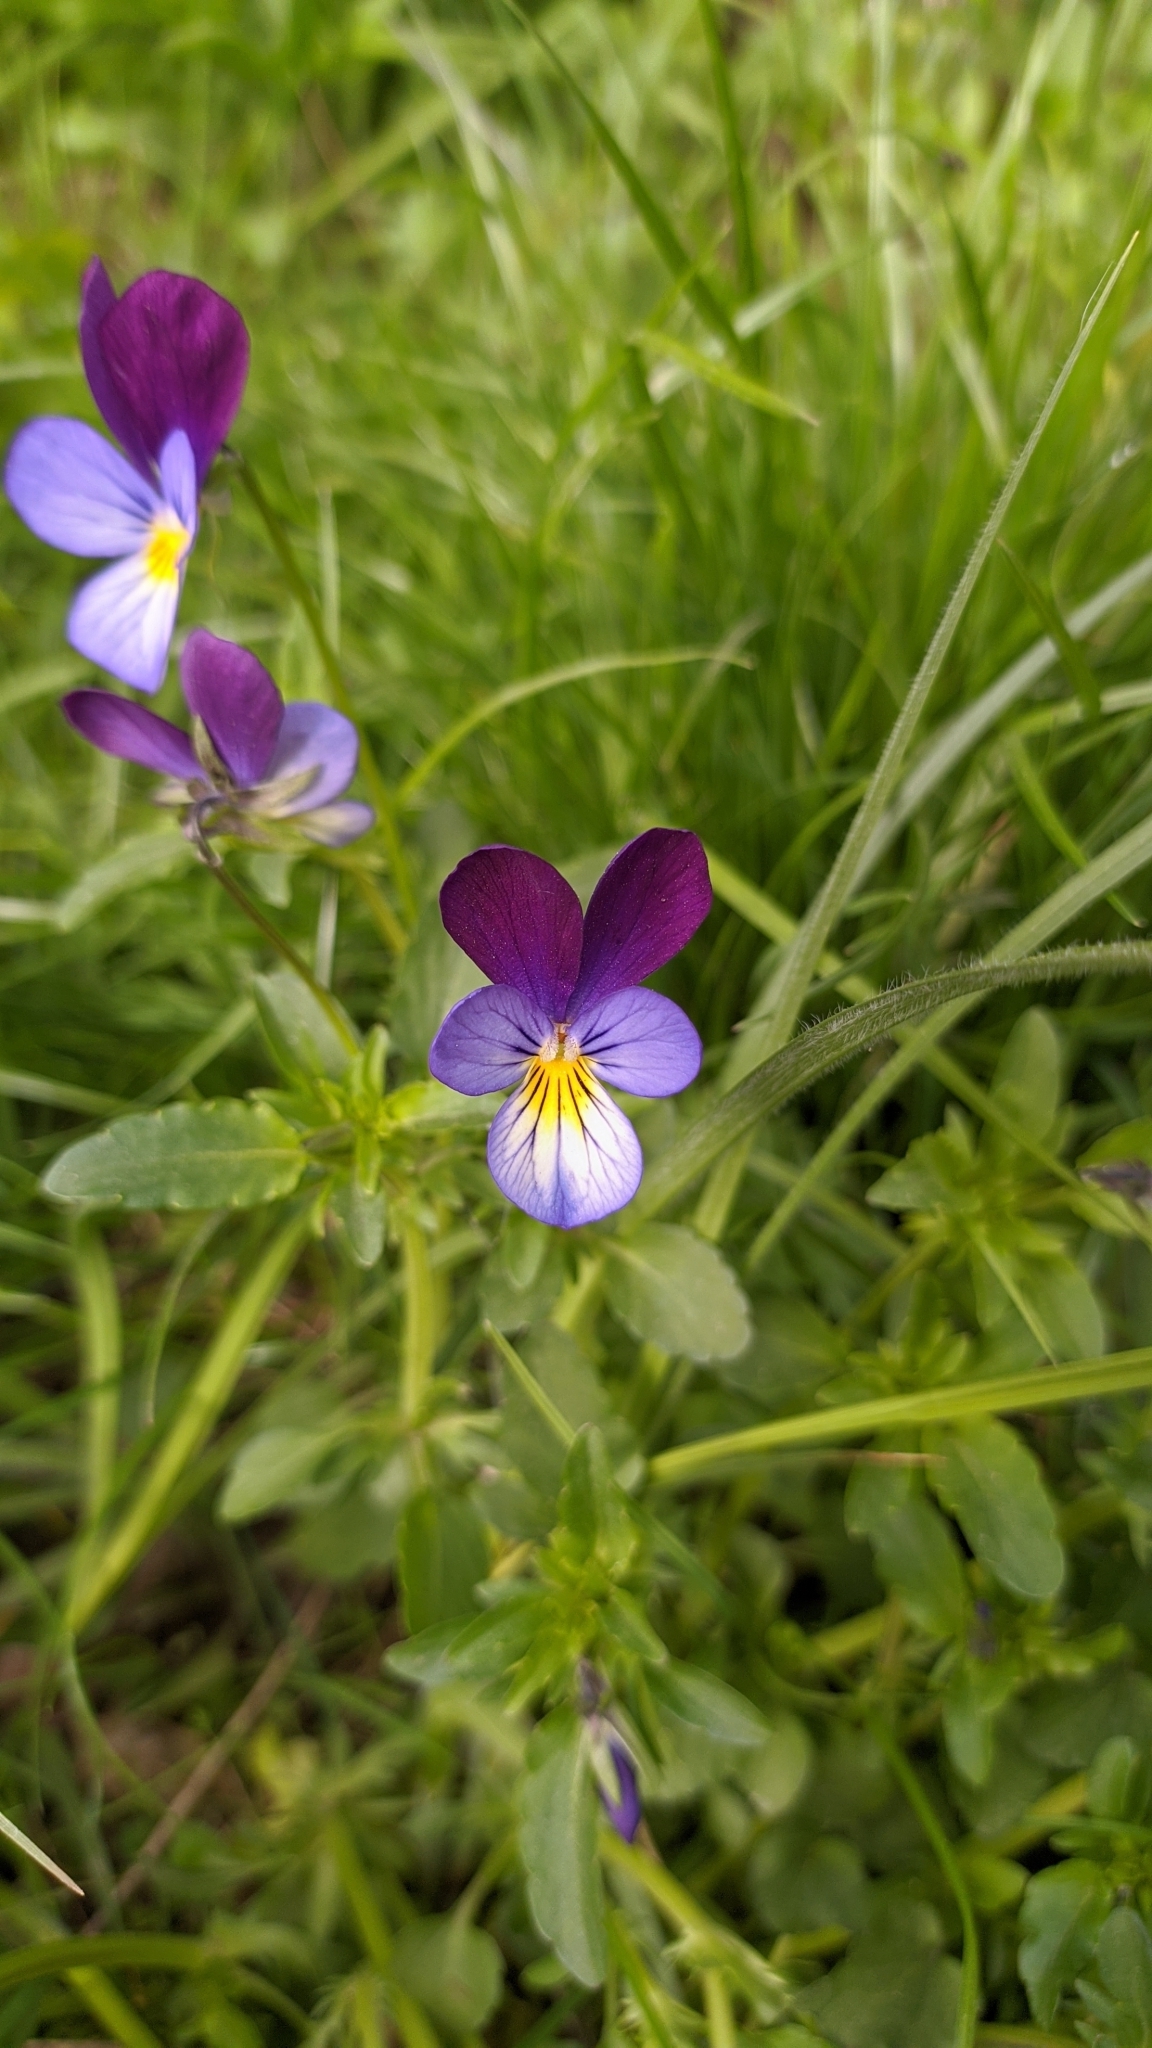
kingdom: Plantae
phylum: Tracheophyta
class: Magnoliopsida
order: Malpighiales
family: Violaceae
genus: Viola
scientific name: Viola tricolor
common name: Pansy
